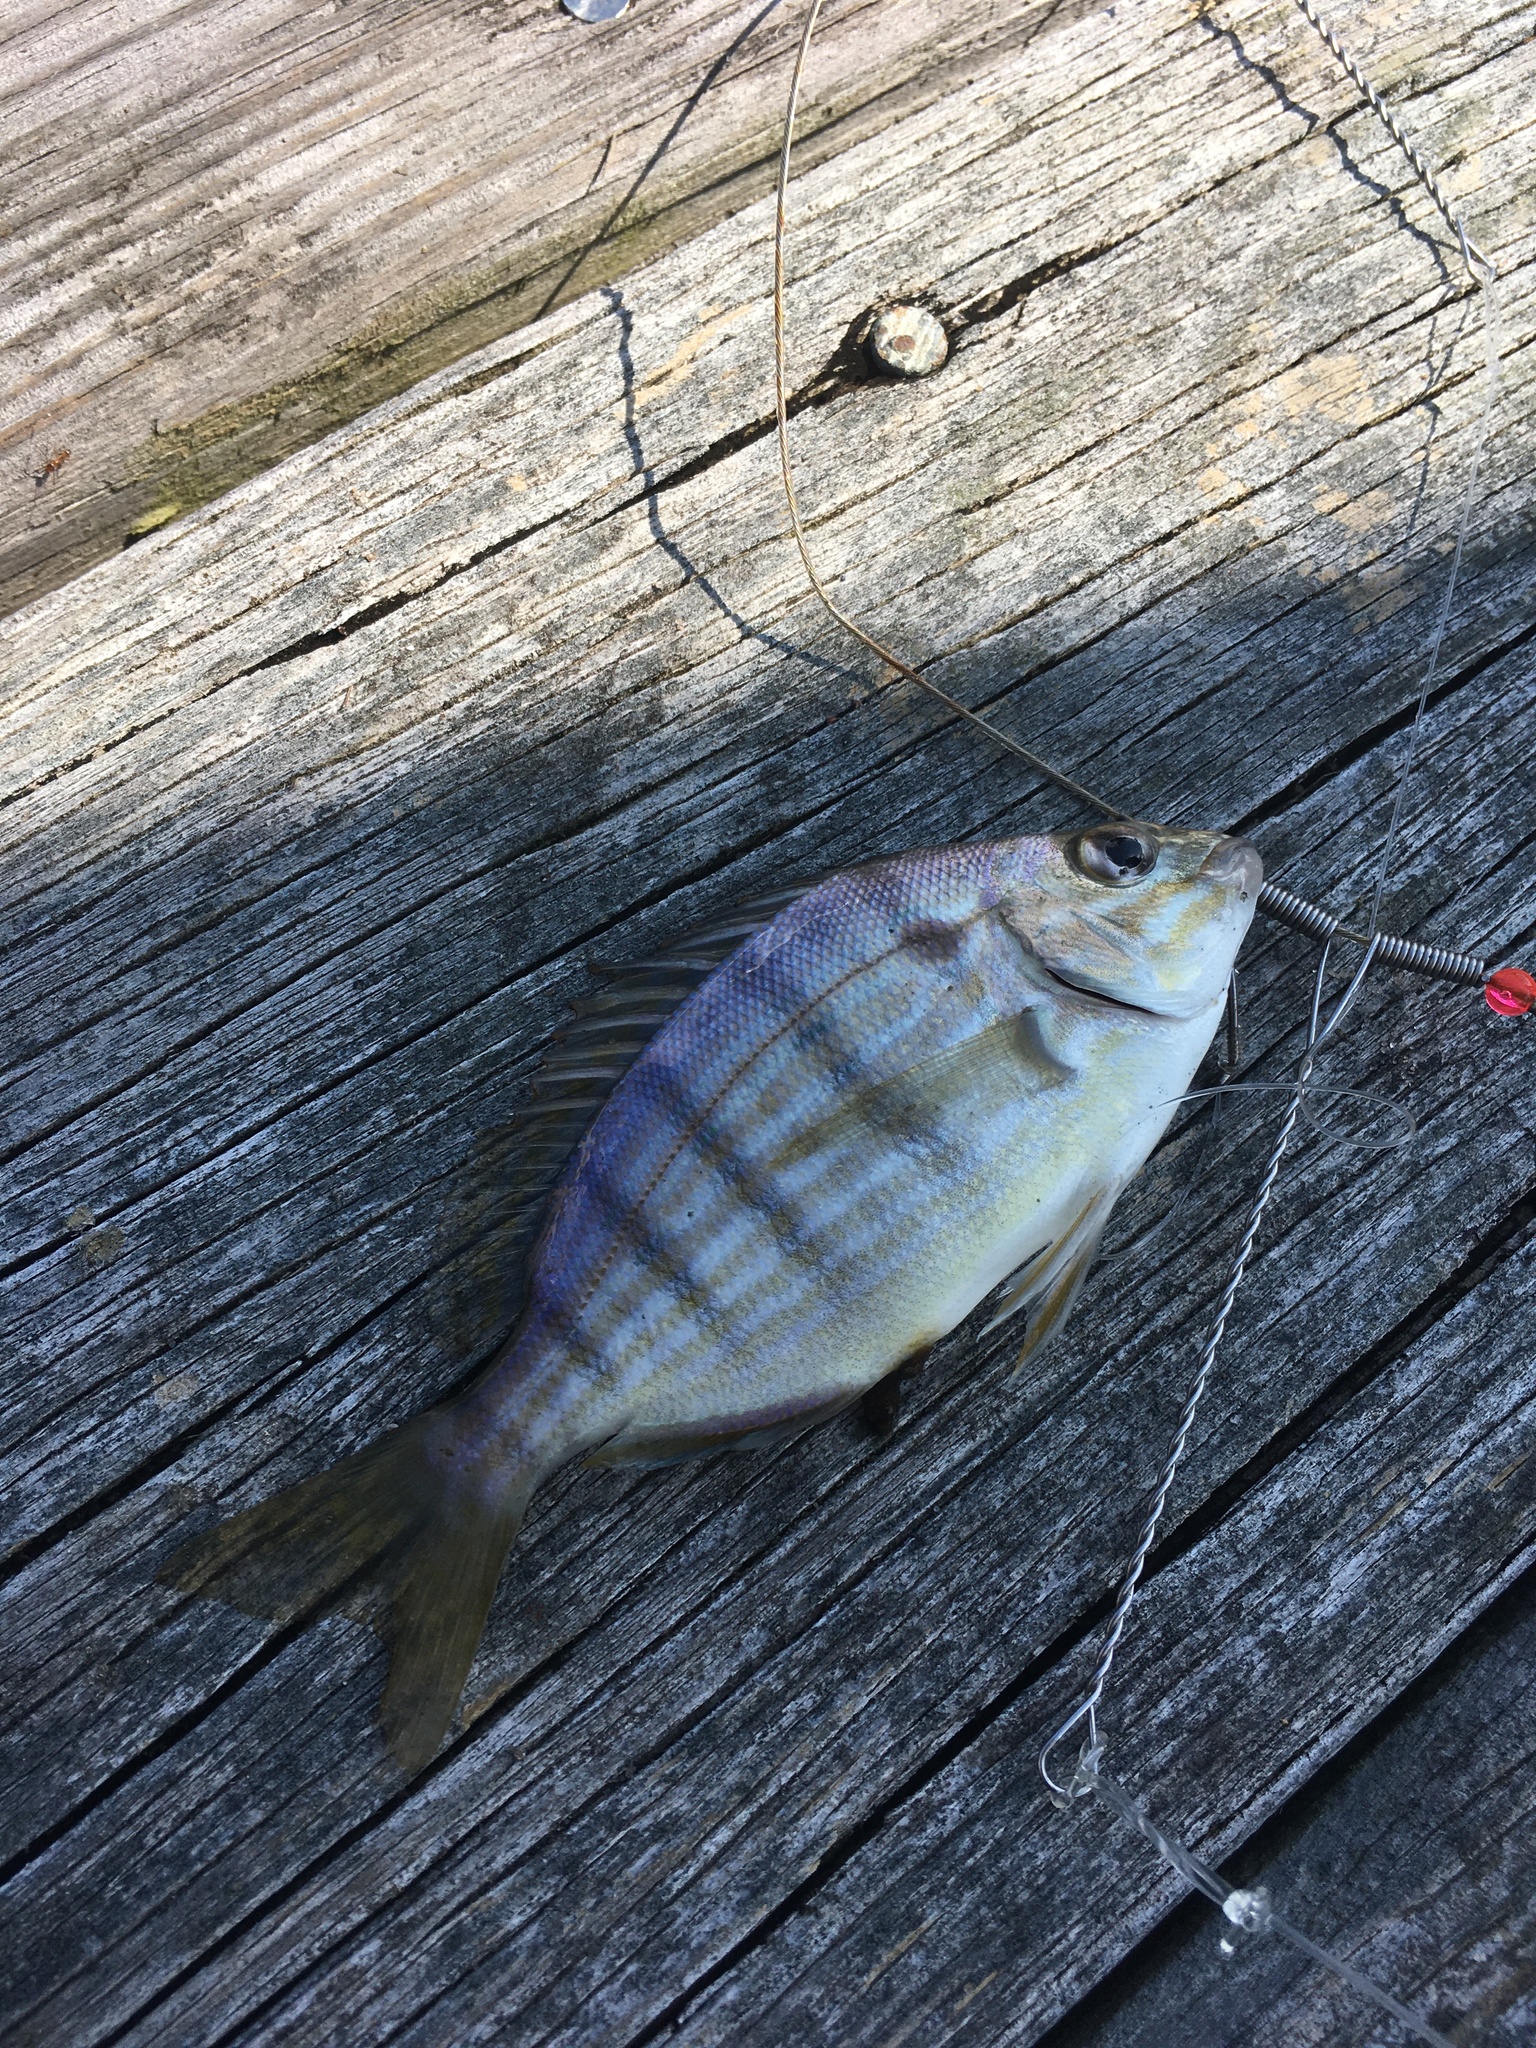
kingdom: Animalia
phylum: Chordata
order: Perciformes
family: Sparidae
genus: Lagodon
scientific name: Lagodon rhomboides
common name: Pinfish
